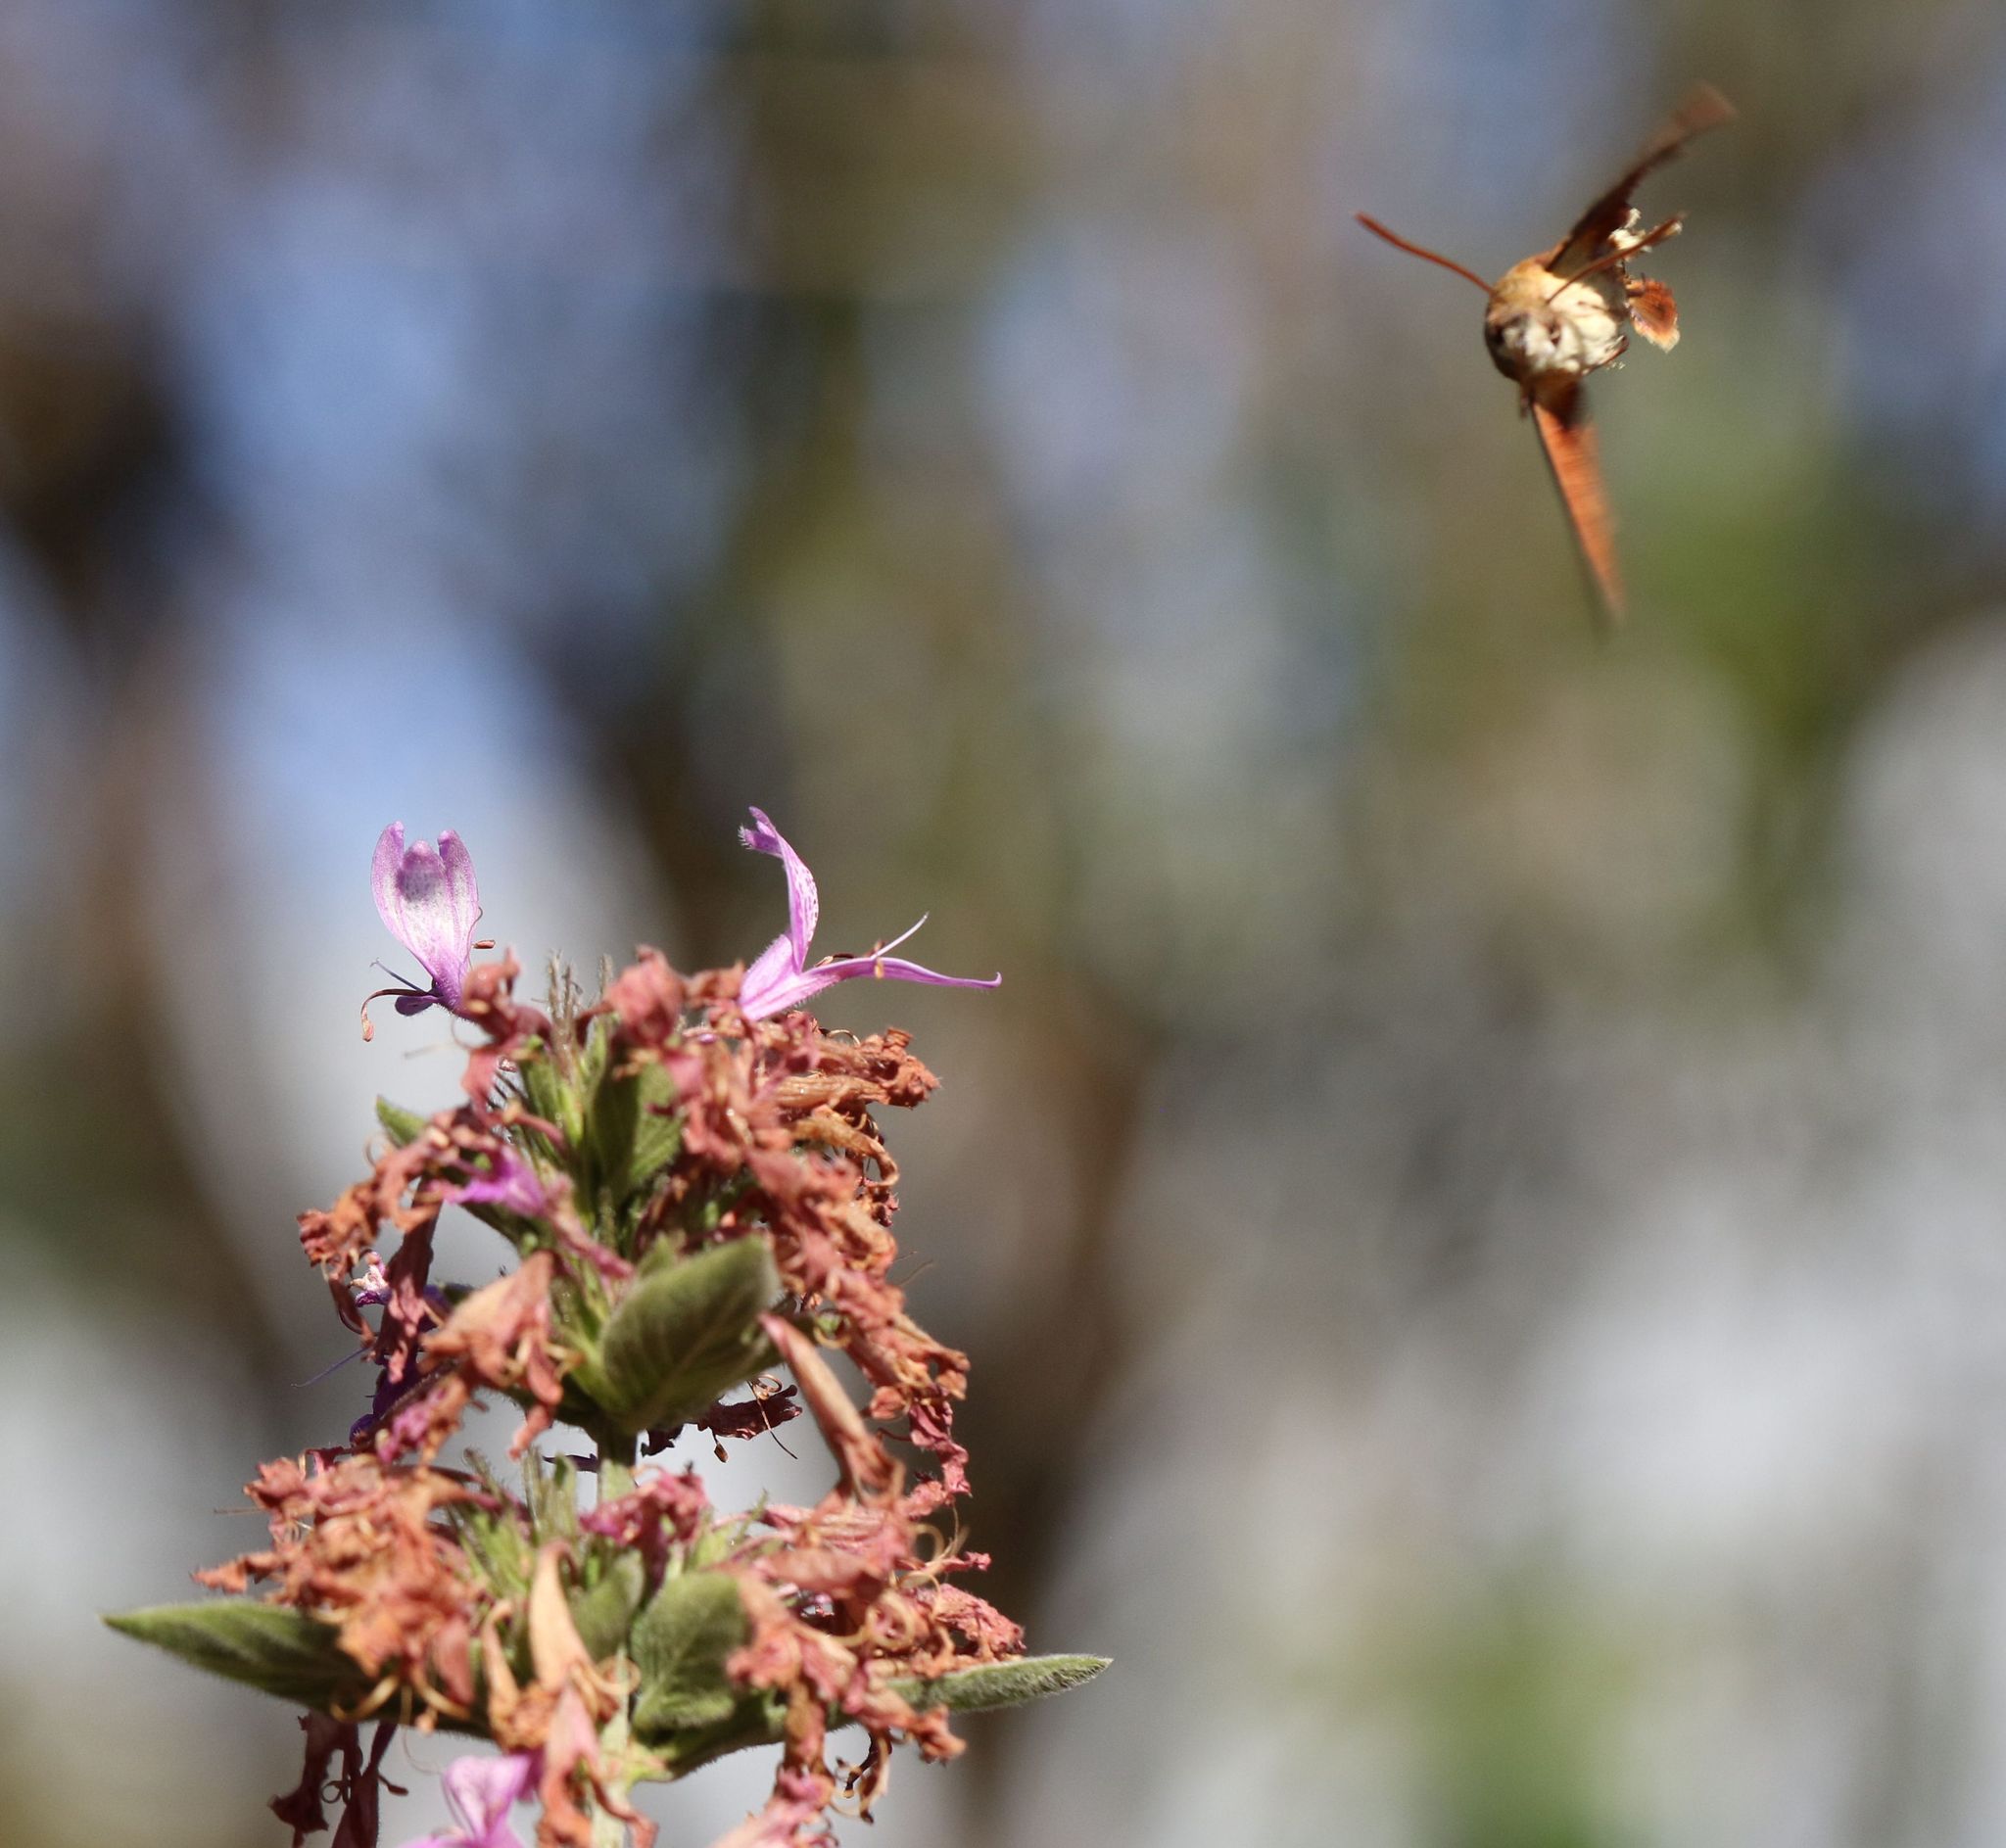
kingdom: Animalia
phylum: Arthropoda
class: Insecta
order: Lepidoptera
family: Sphingidae
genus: Macroglossum
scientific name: Macroglossum trochilus
